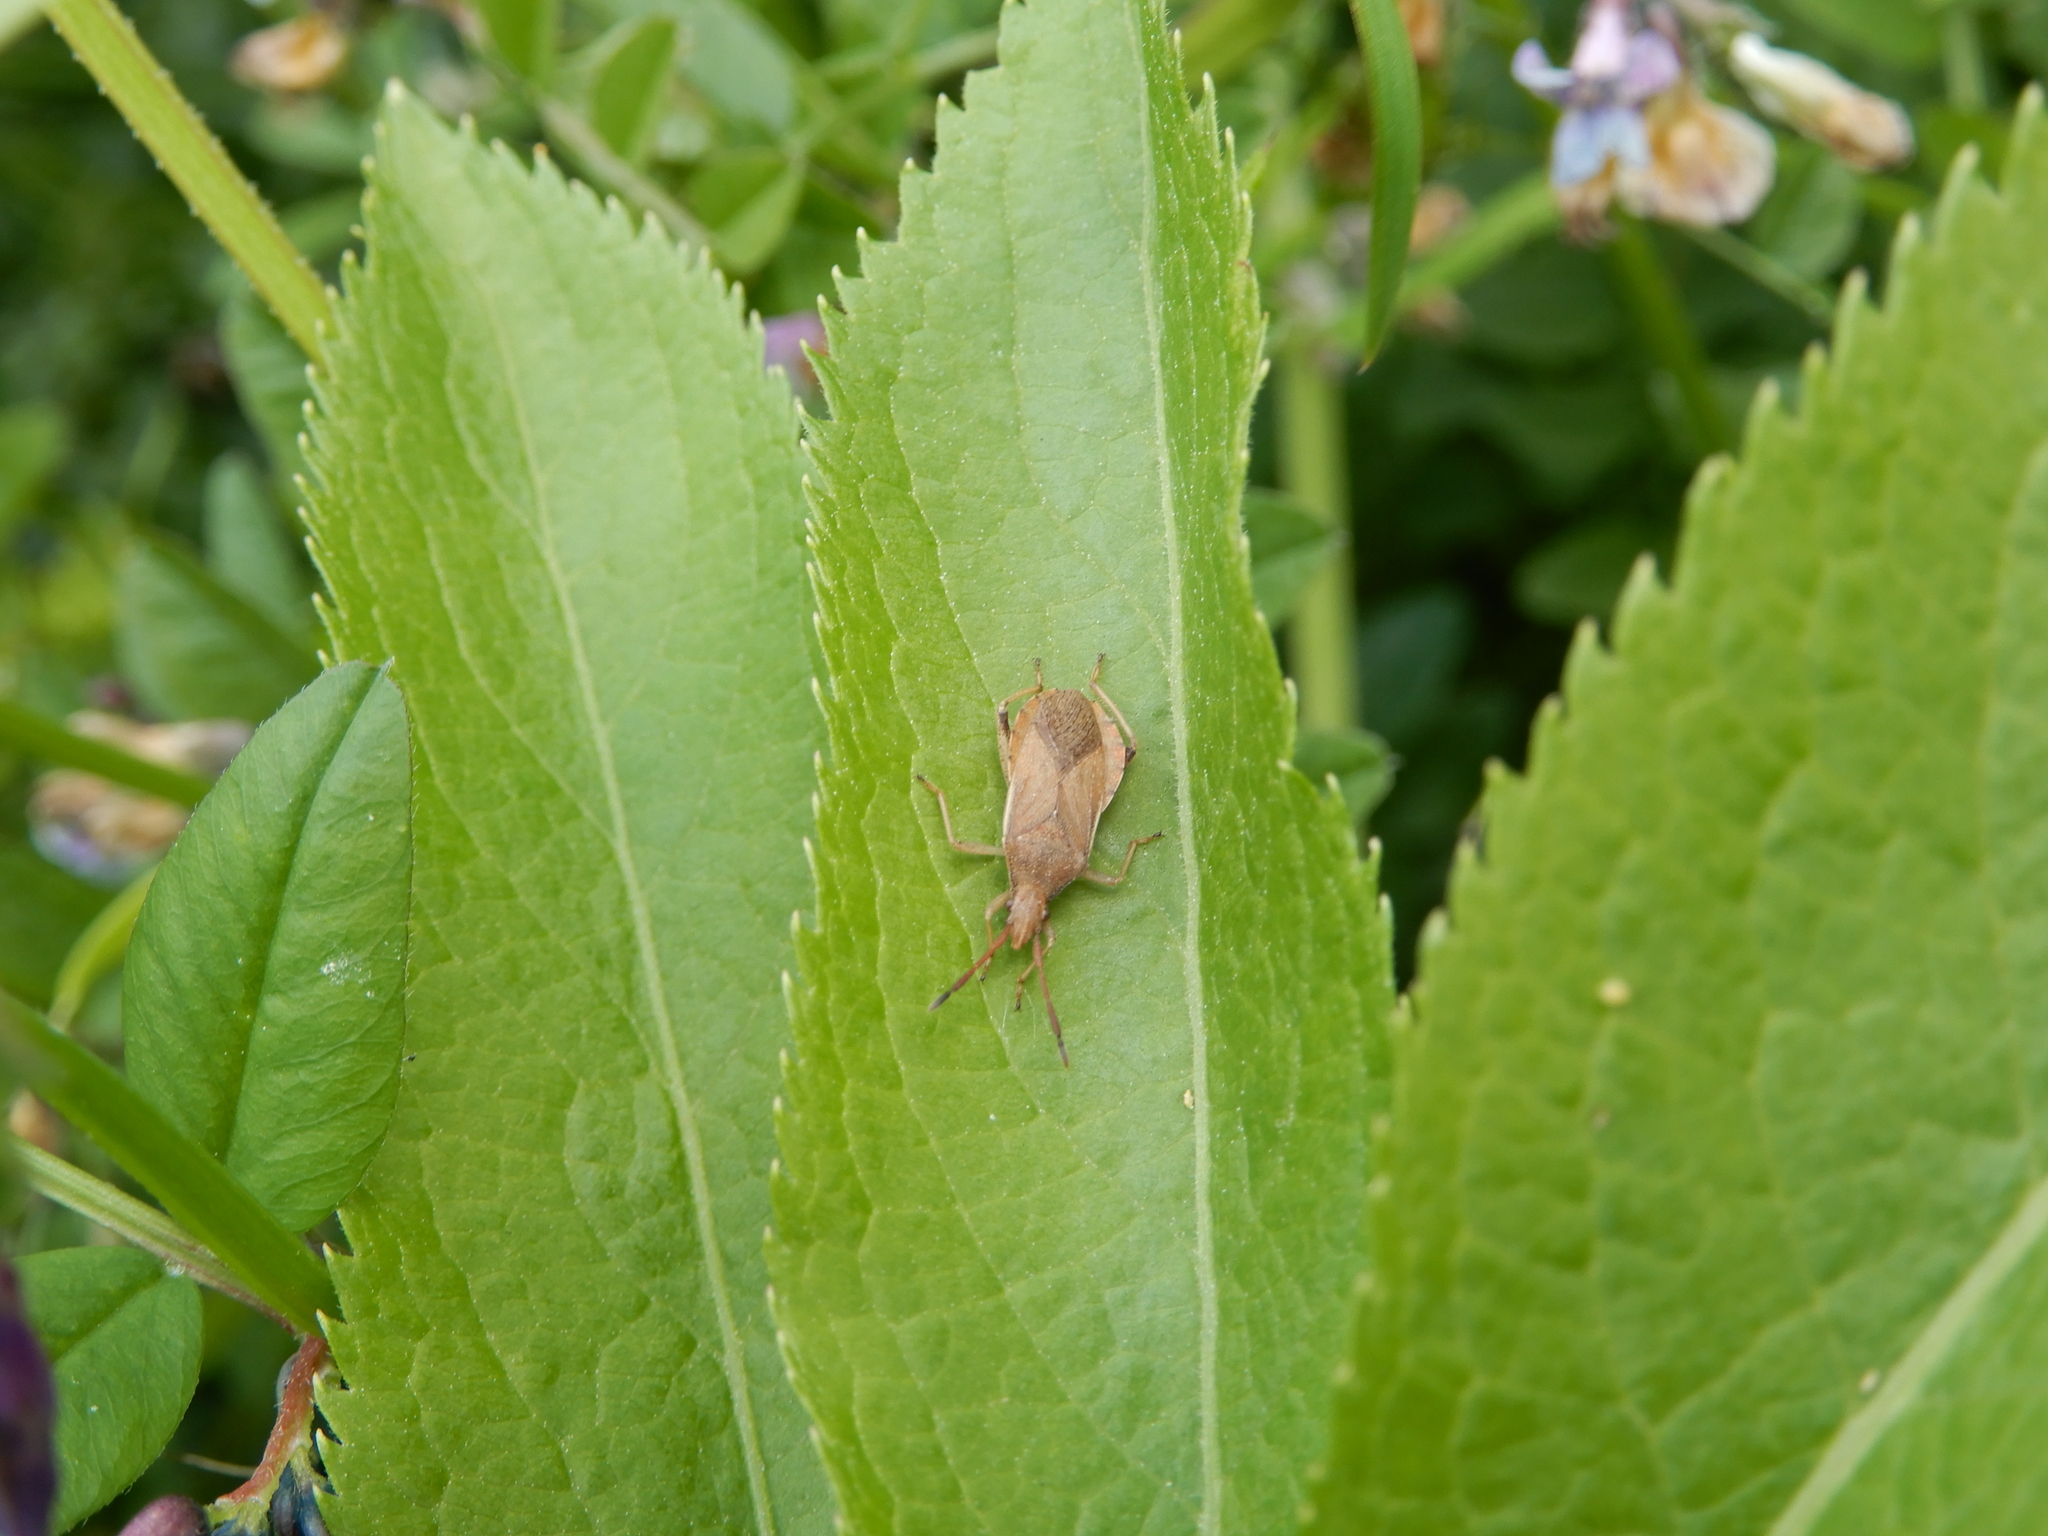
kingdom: Animalia
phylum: Arthropoda
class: Insecta
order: Hemiptera
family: Coreidae
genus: Ceraleptus
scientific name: Ceraleptus lividus
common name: Slender-horned leatherbug
